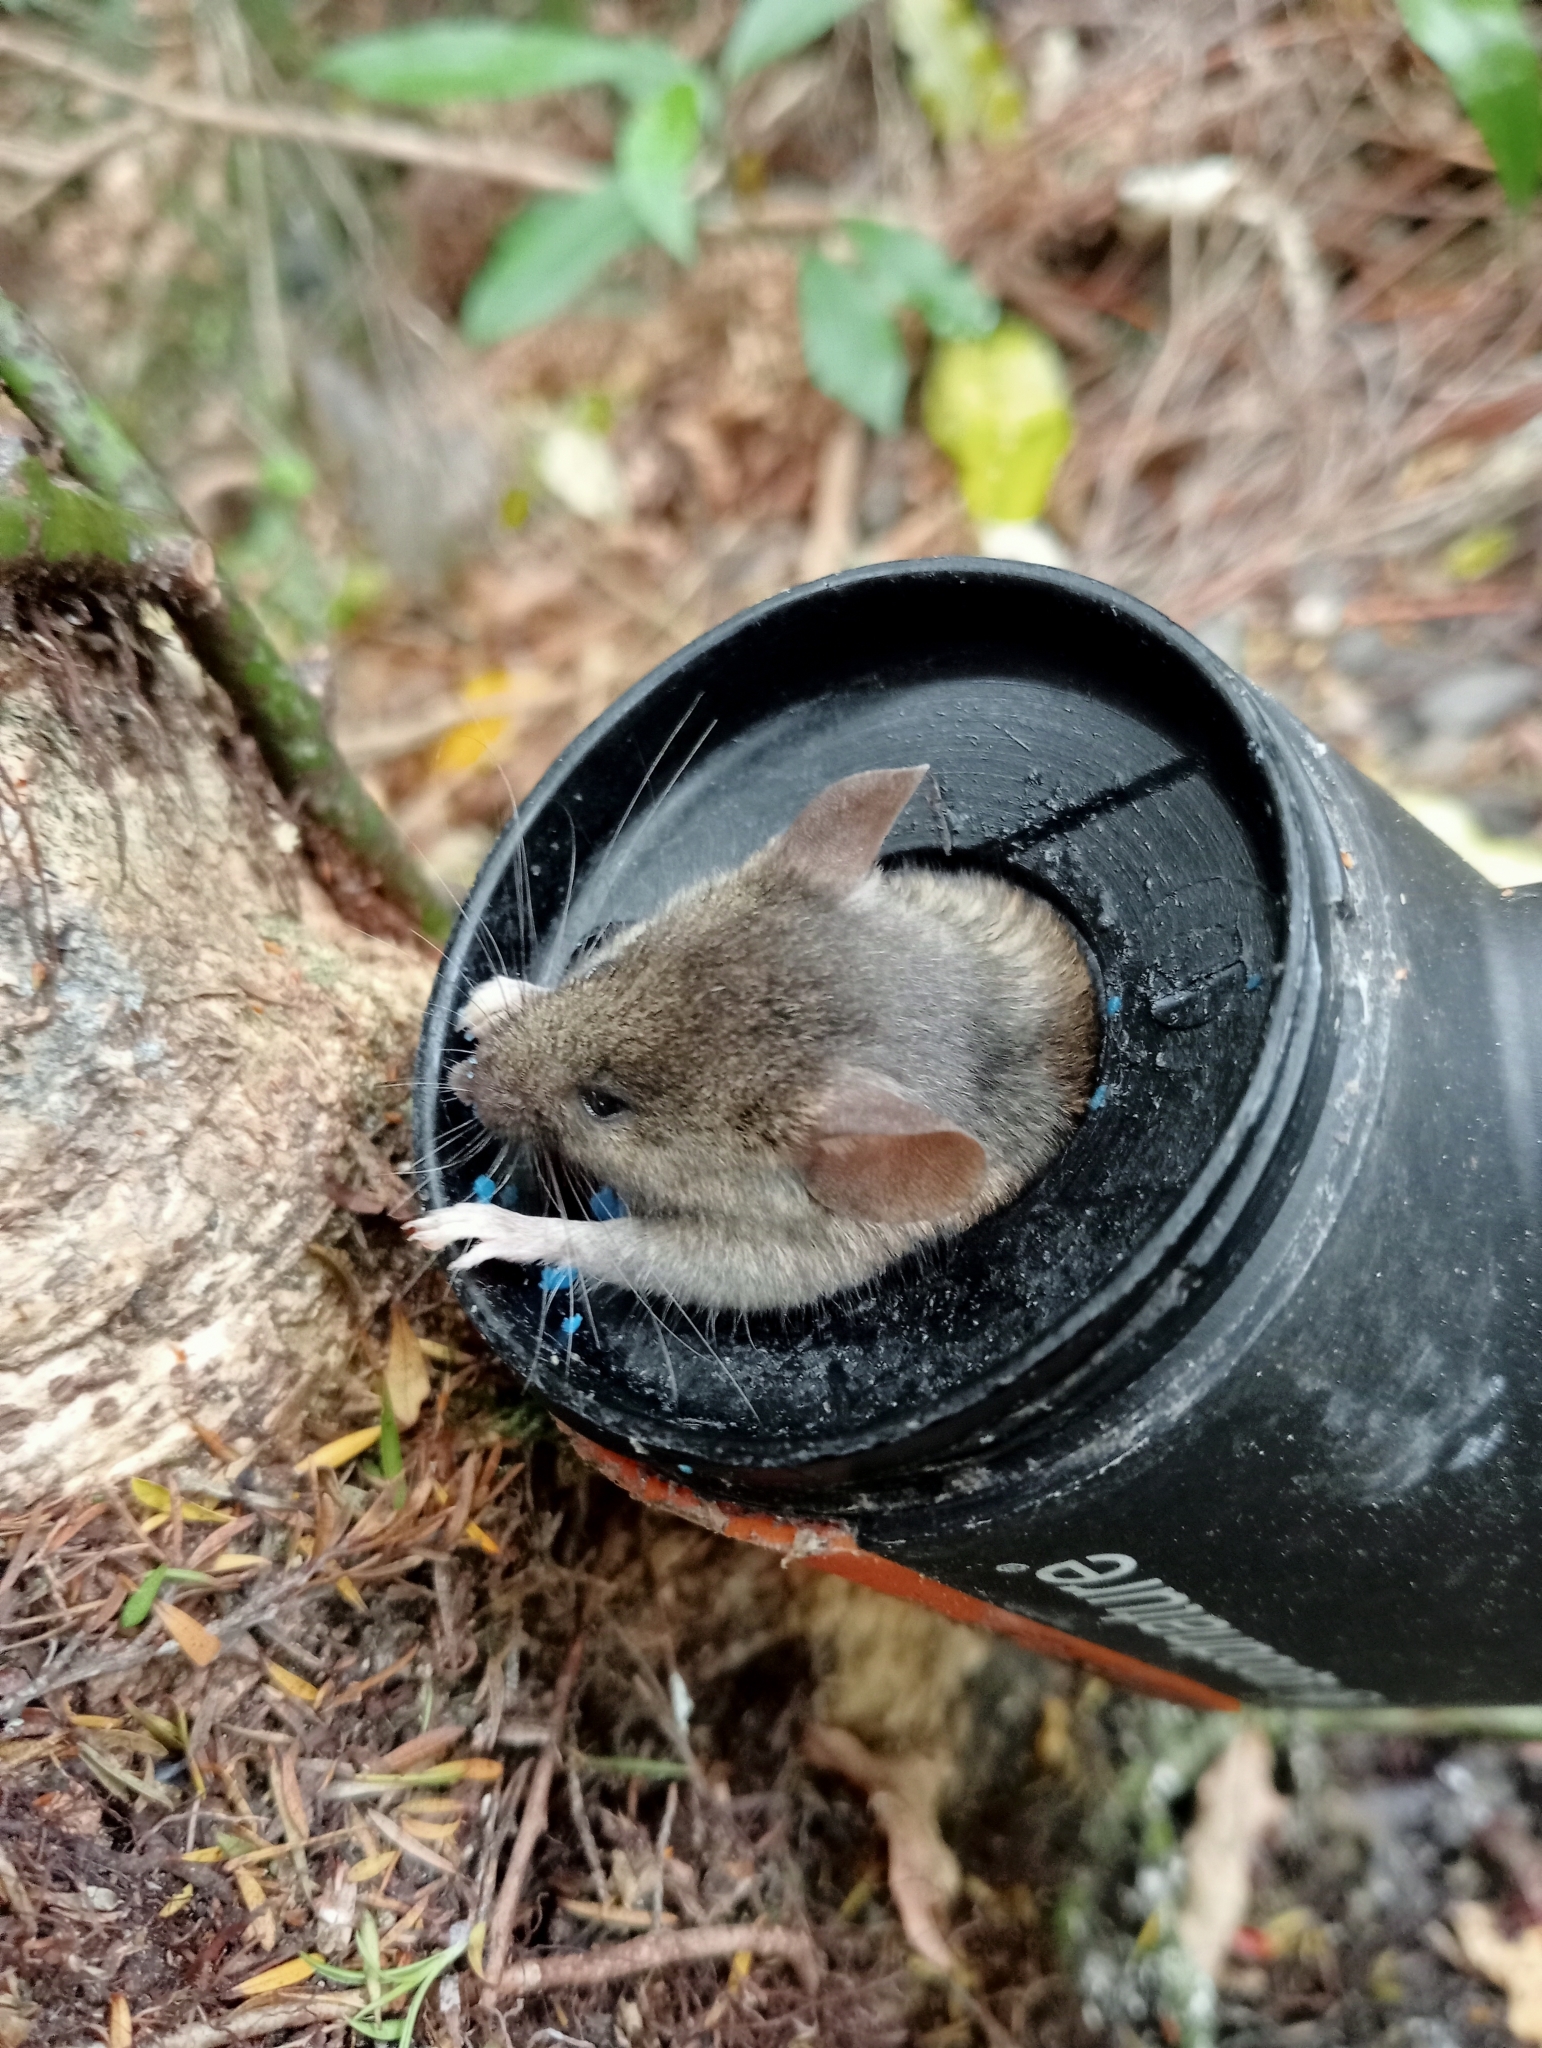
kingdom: Animalia
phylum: Chordata
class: Mammalia
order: Rodentia
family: Muridae
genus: Mus
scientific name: Mus musculus
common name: House mouse
